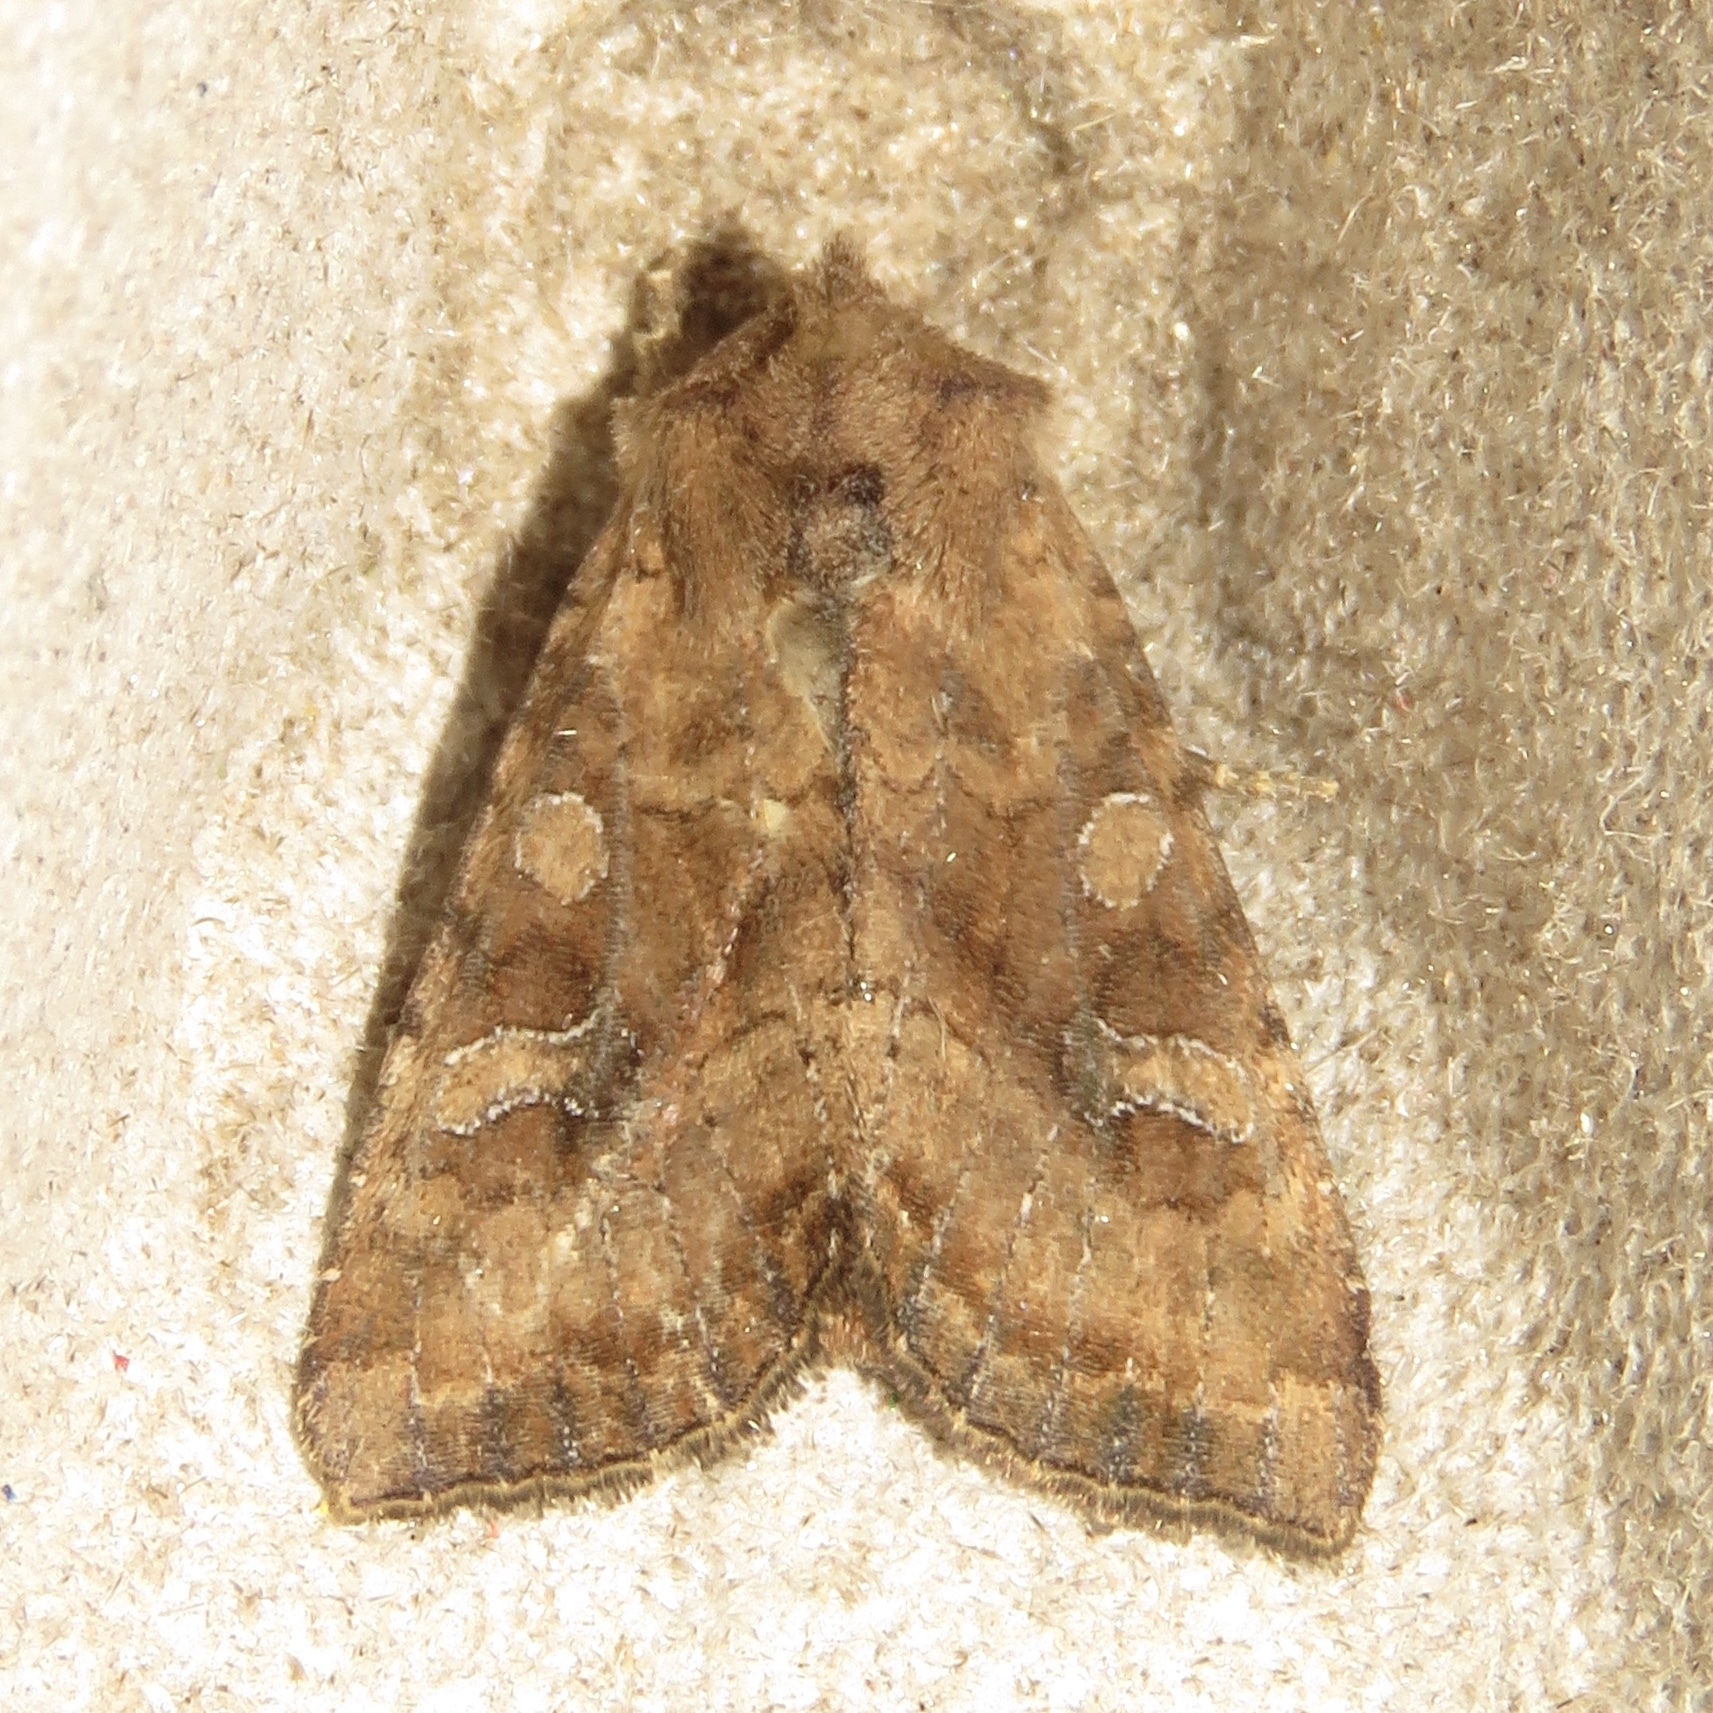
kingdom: Animalia
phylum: Arthropoda
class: Insecta
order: Lepidoptera
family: Noctuidae
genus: Loscopia
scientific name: Loscopia velata
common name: Veiled ear moth
